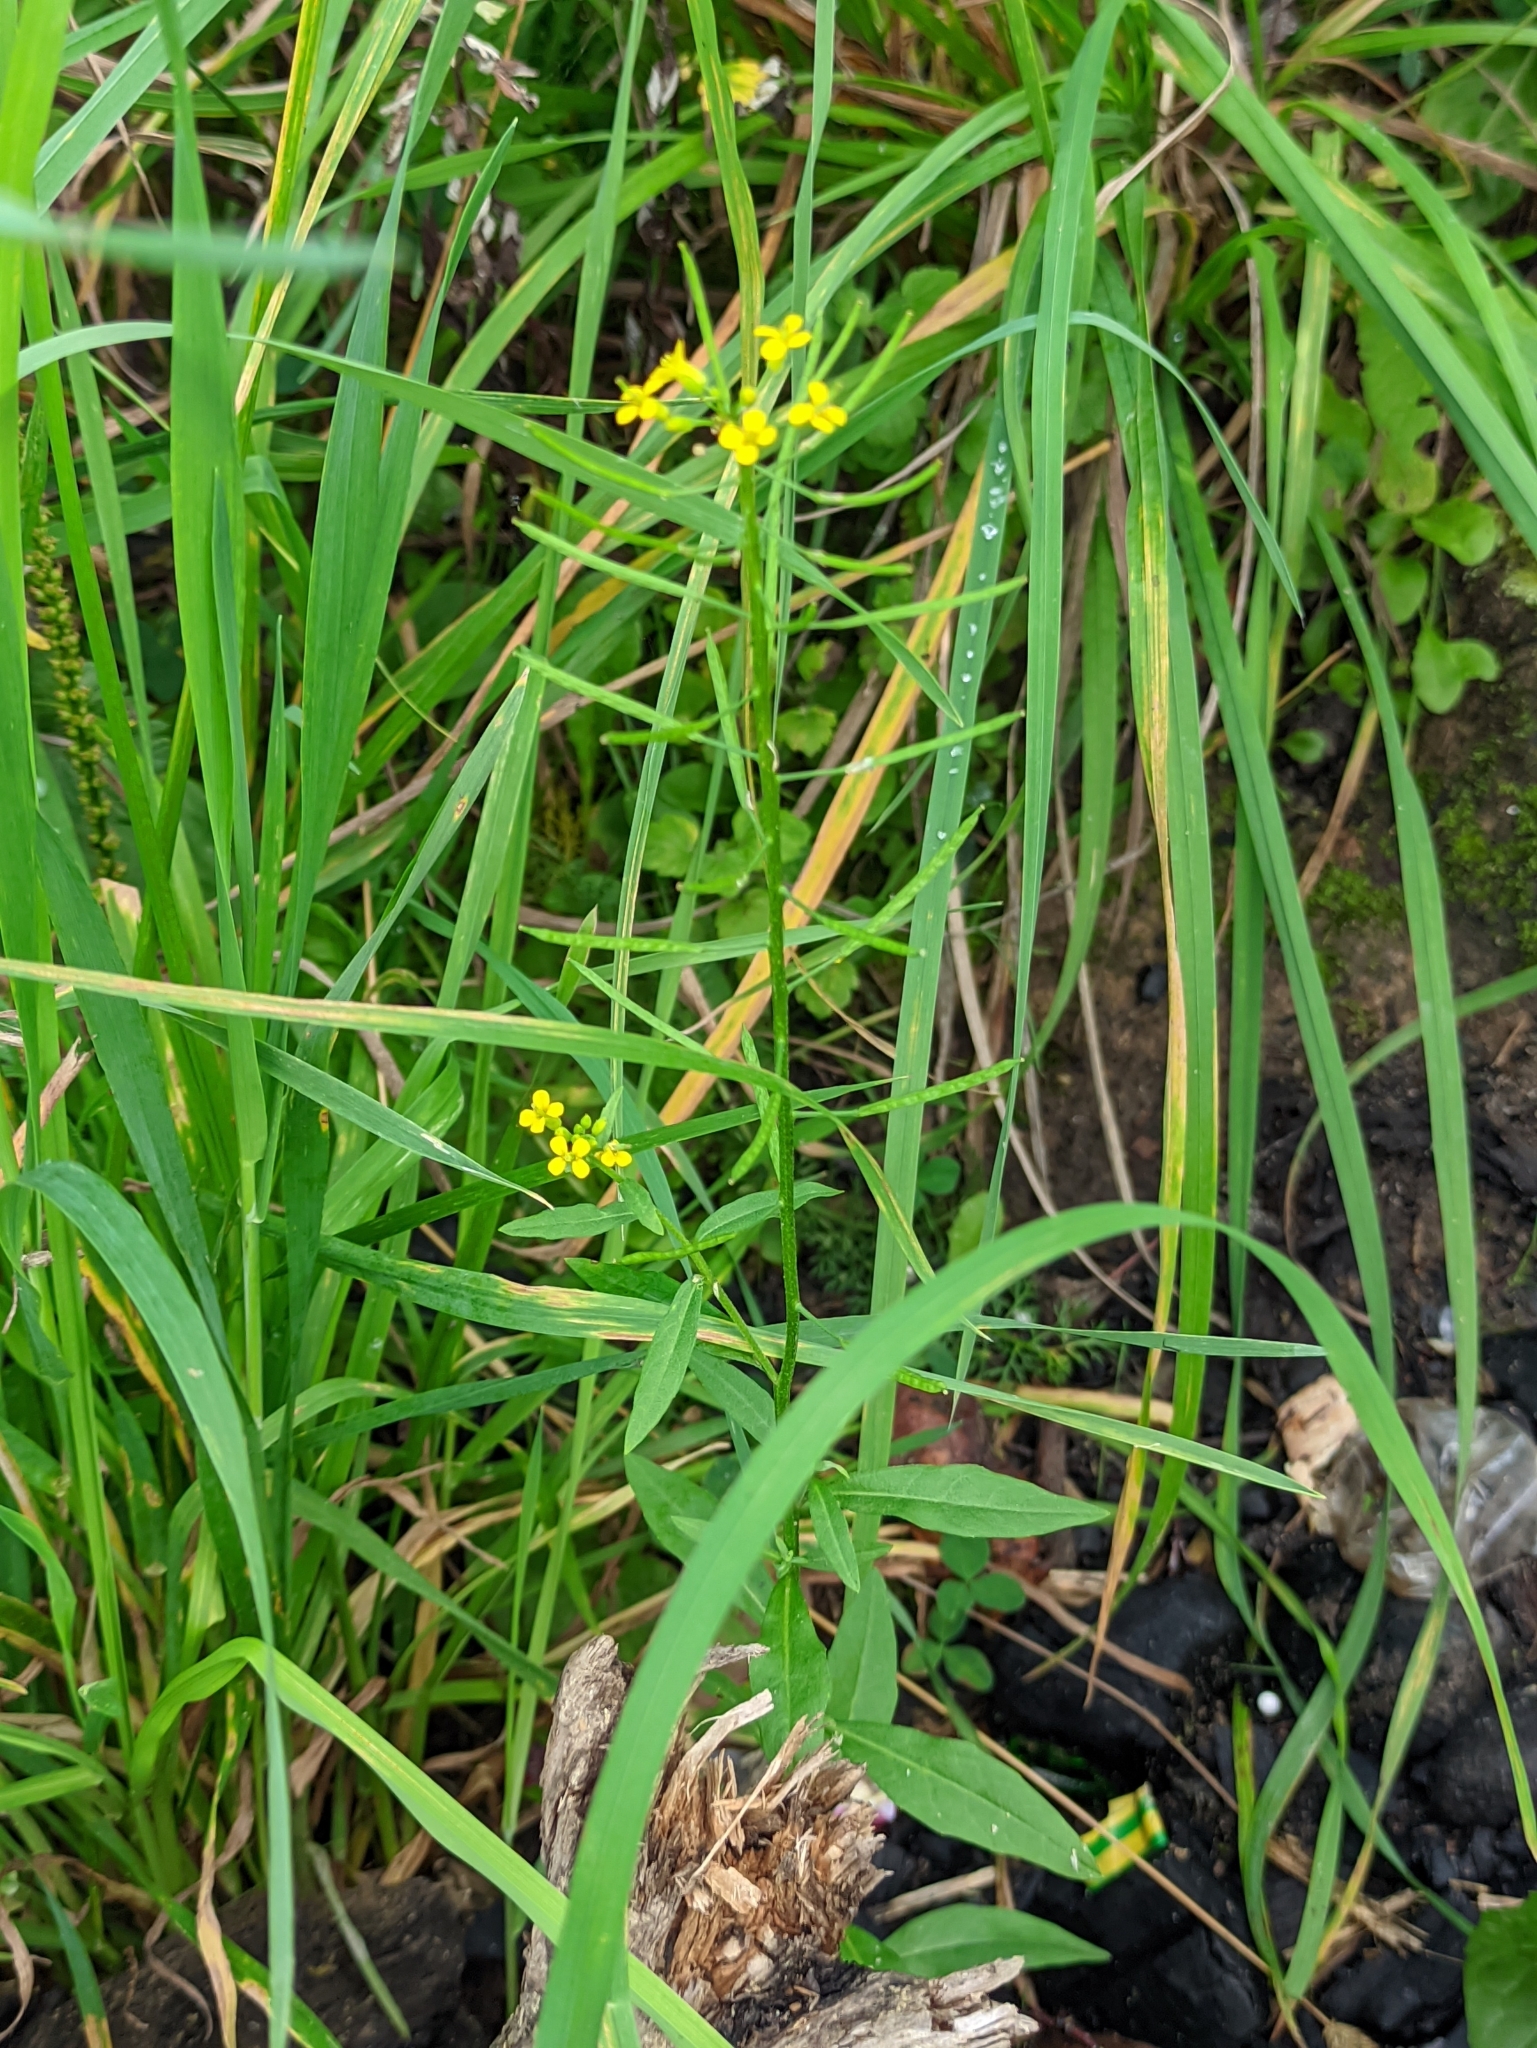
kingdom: Plantae
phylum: Tracheophyta
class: Magnoliopsida
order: Brassicales
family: Brassicaceae
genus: Erysimum
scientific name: Erysimum cheiranthoides
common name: Treacle mustard
